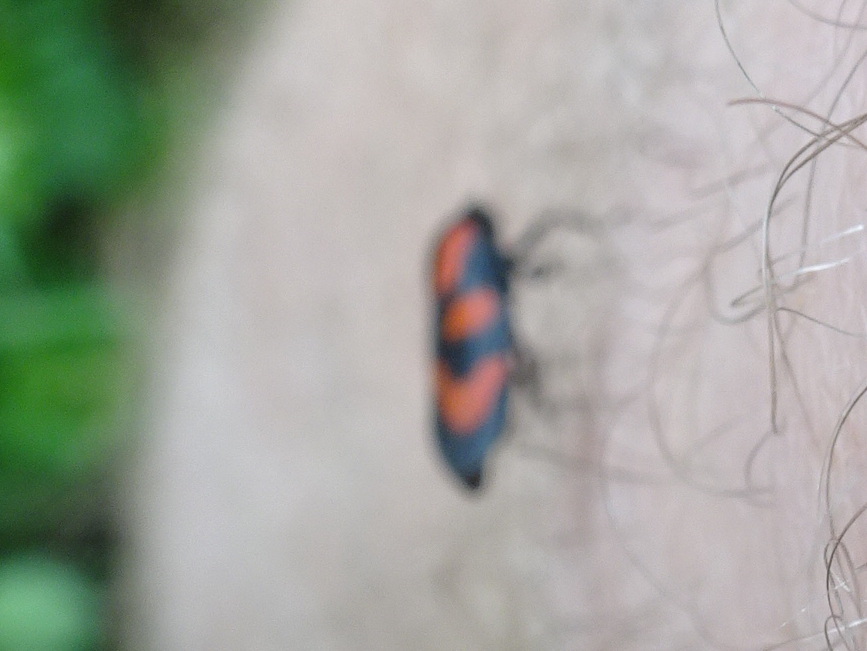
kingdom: Animalia
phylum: Arthropoda
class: Insecta
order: Hemiptera
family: Cercopidae
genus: Cercopis
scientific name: Cercopis vulnerata
